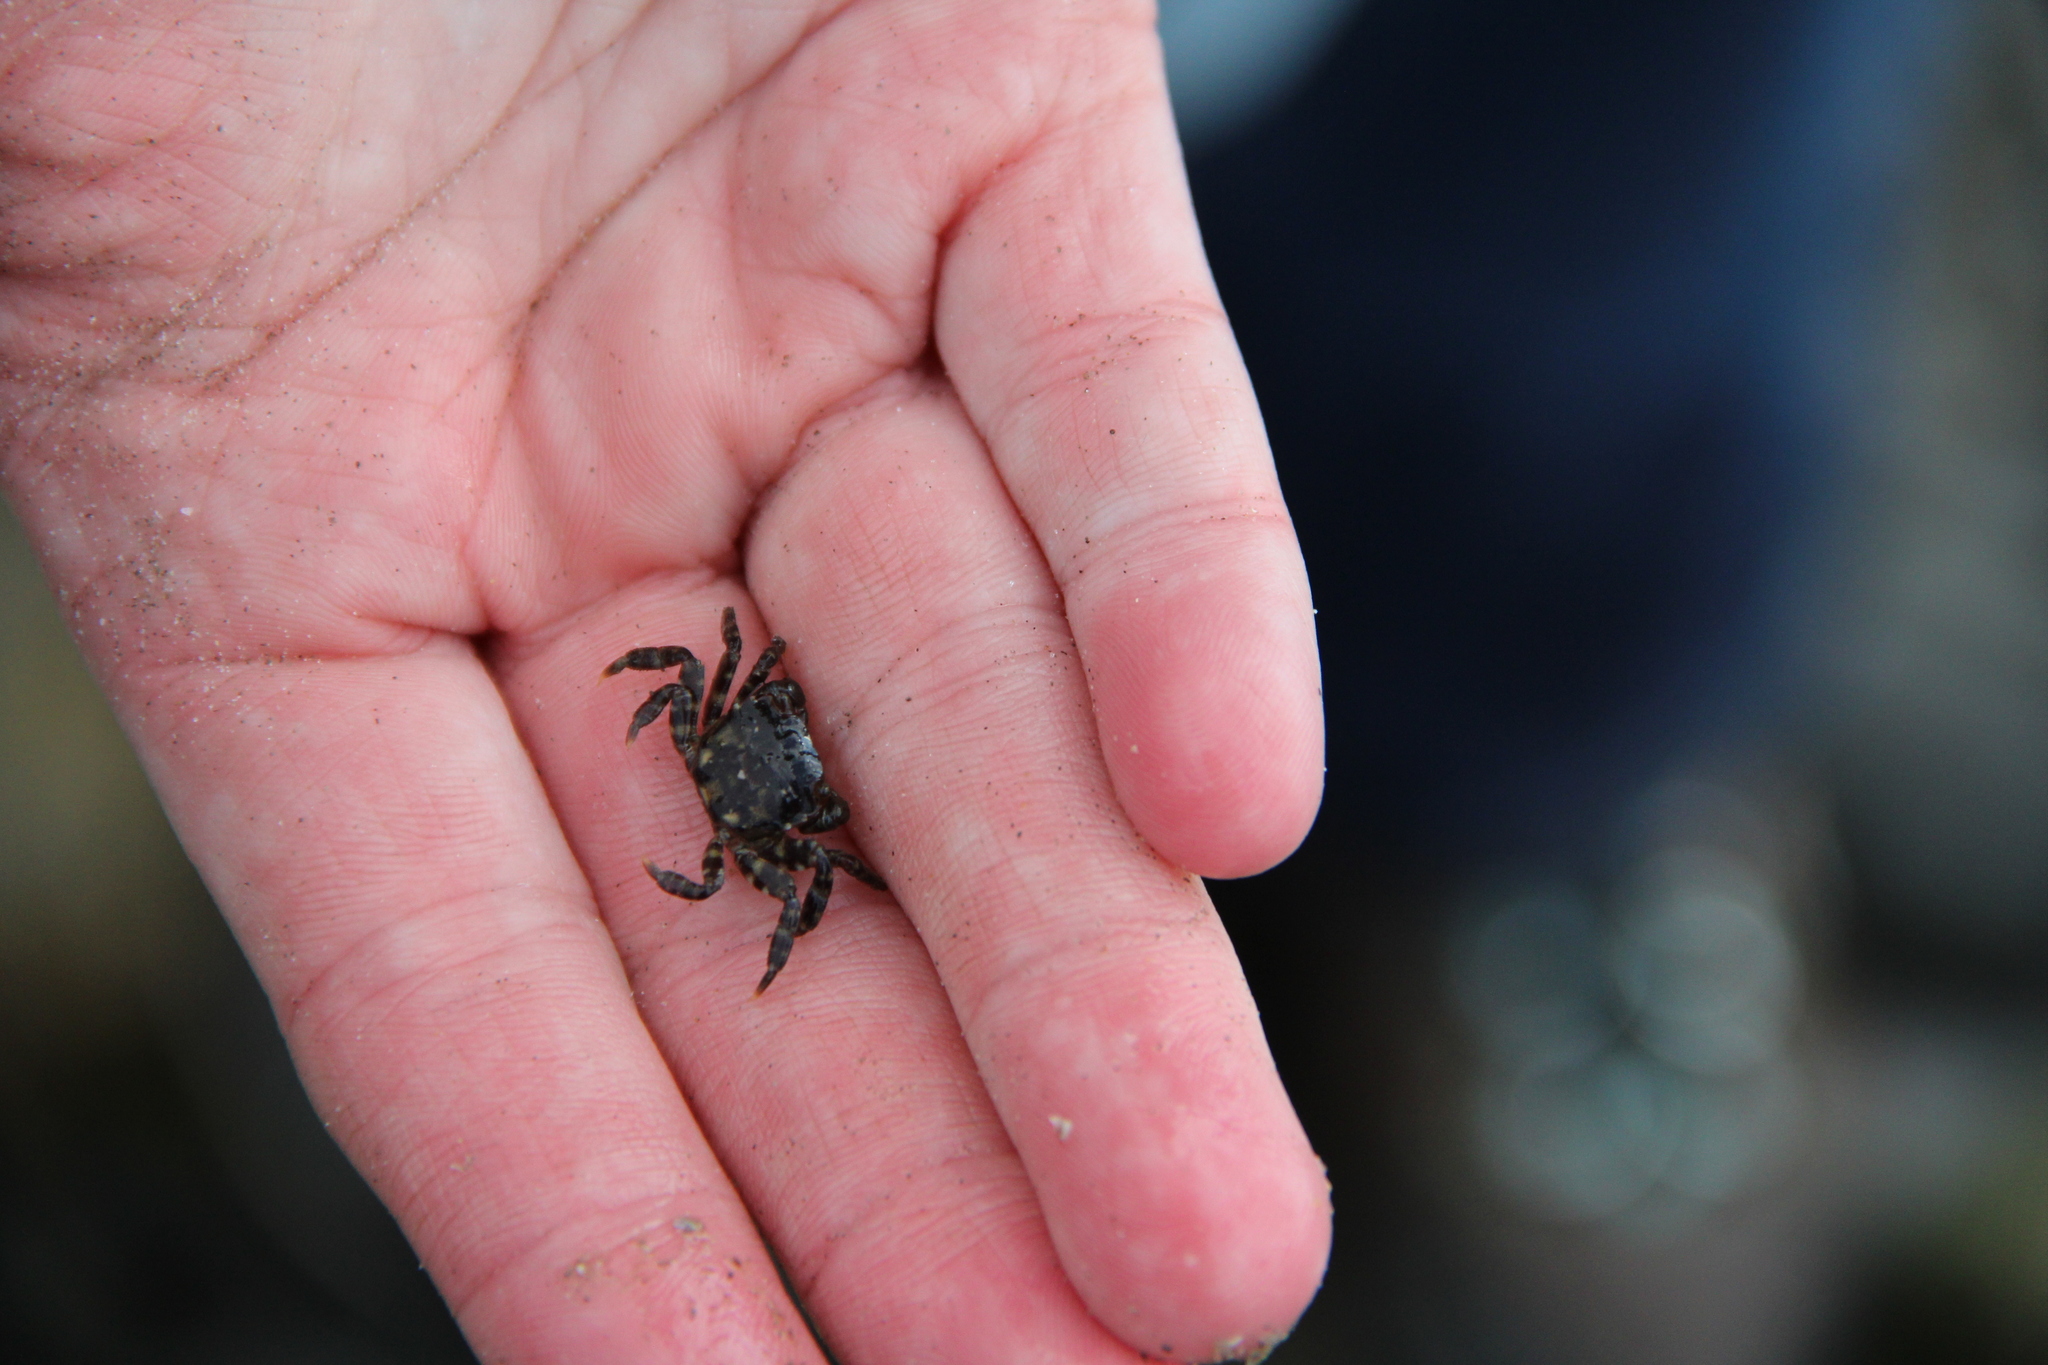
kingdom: Animalia
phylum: Arthropoda
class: Malacostraca
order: Decapoda
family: Varunidae
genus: Hemigrapsus
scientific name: Hemigrapsus sanguineus
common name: Asian shore crab
